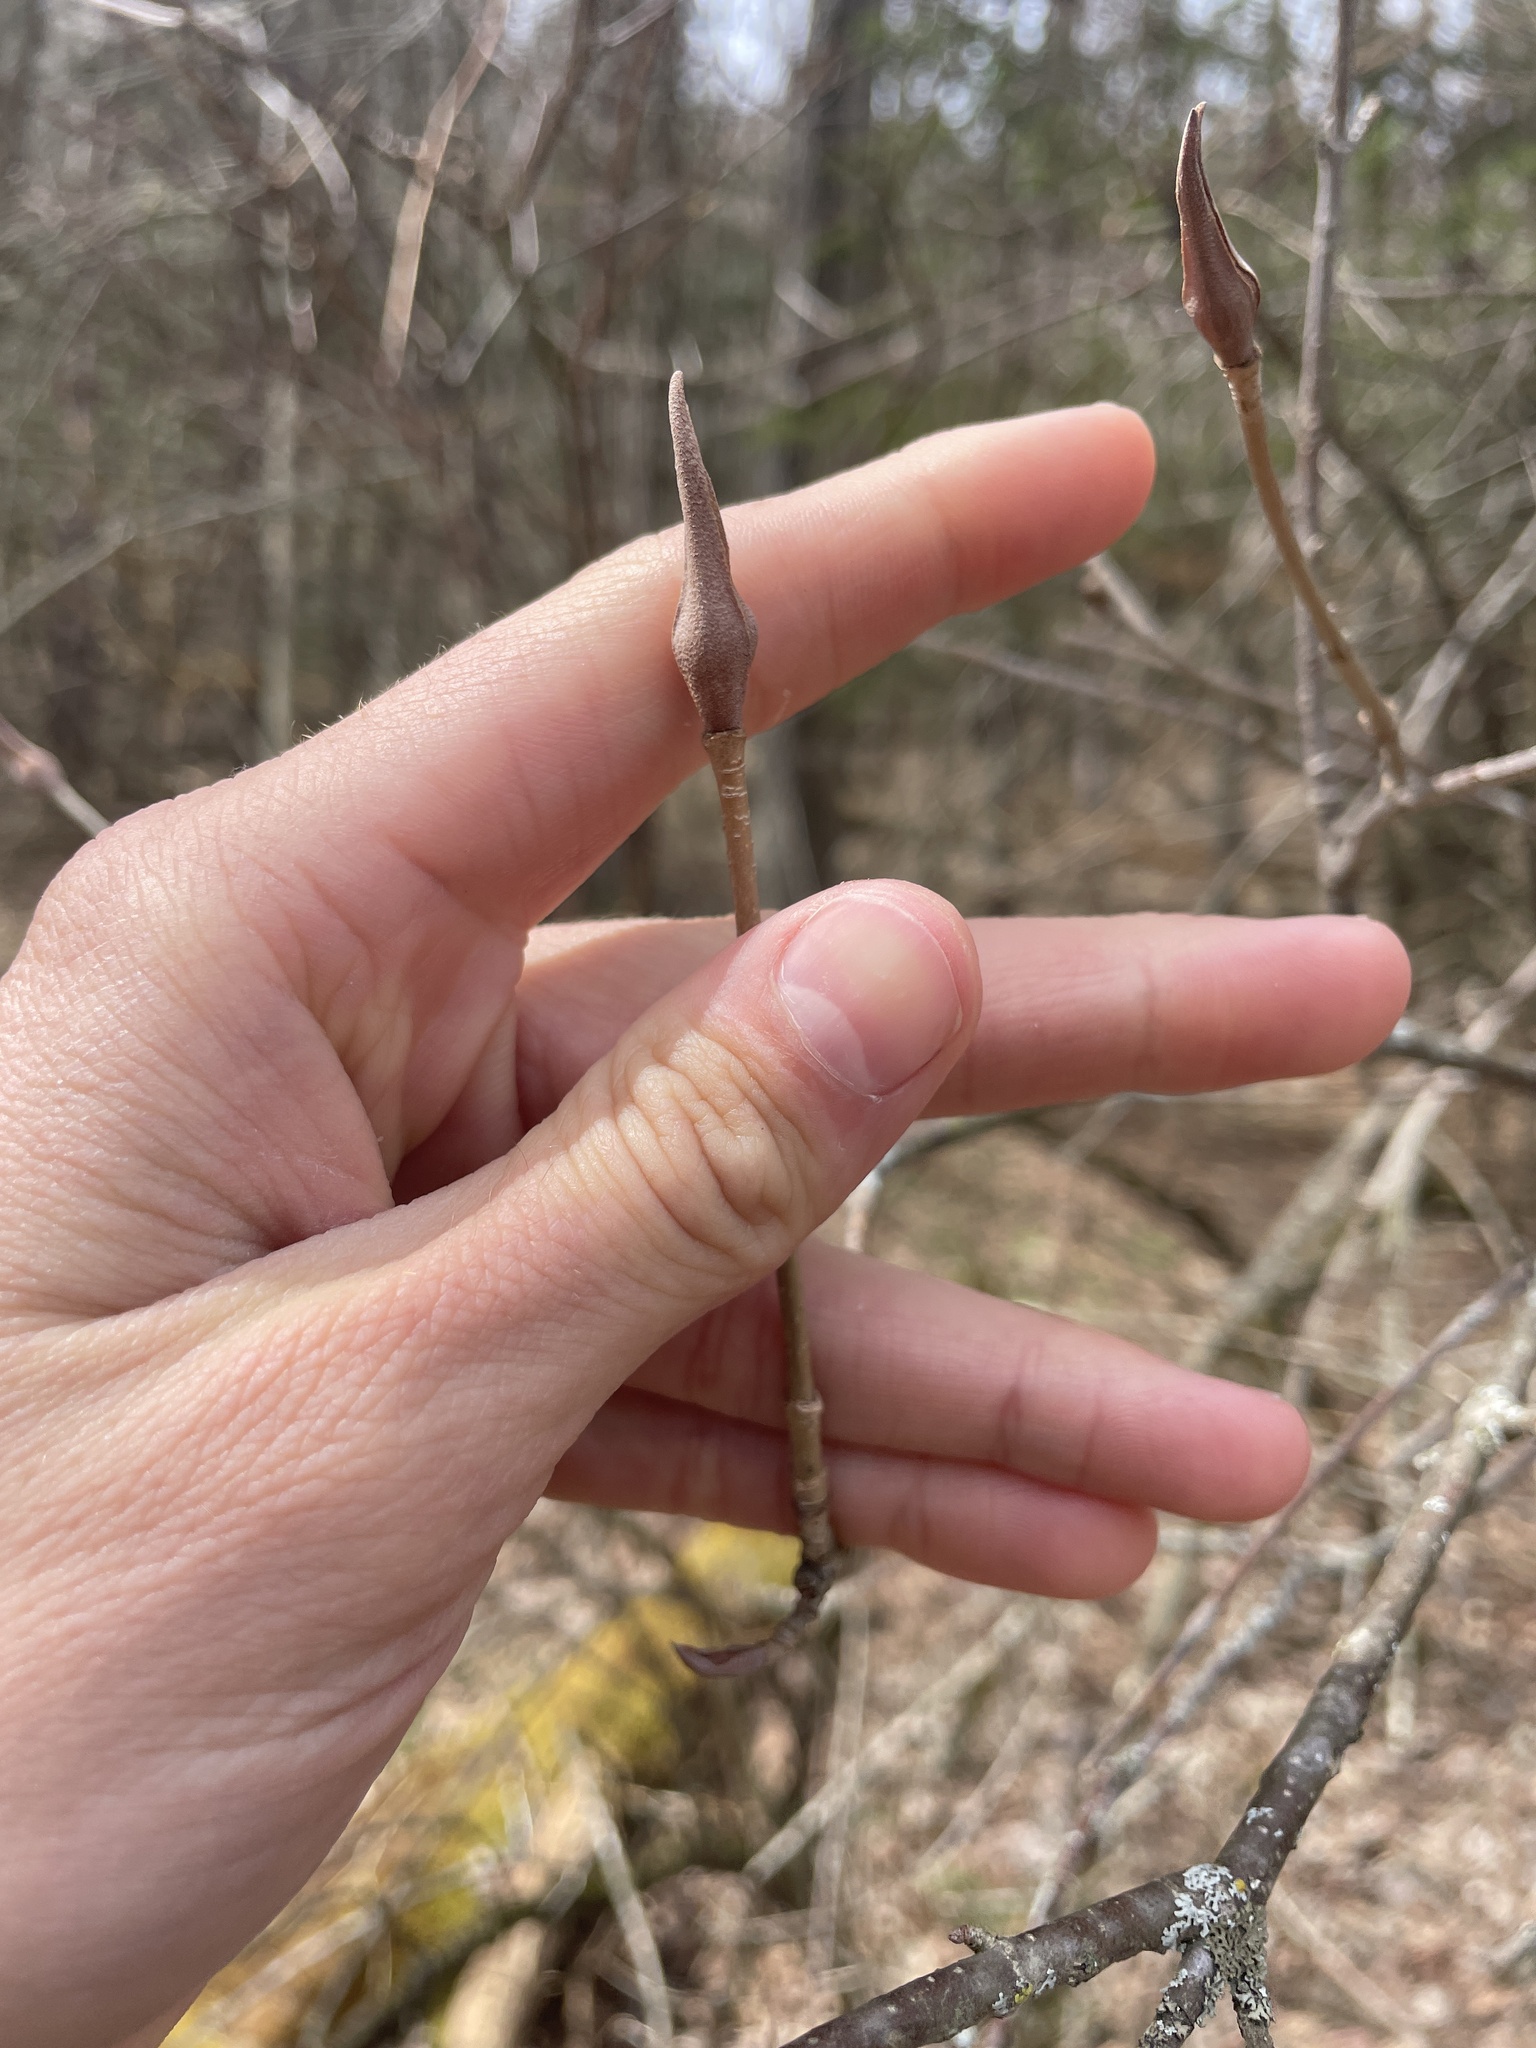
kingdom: Plantae
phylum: Tracheophyta
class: Magnoliopsida
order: Dipsacales
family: Viburnaceae
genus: Viburnum
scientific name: Viburnum lentago
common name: Black haw
